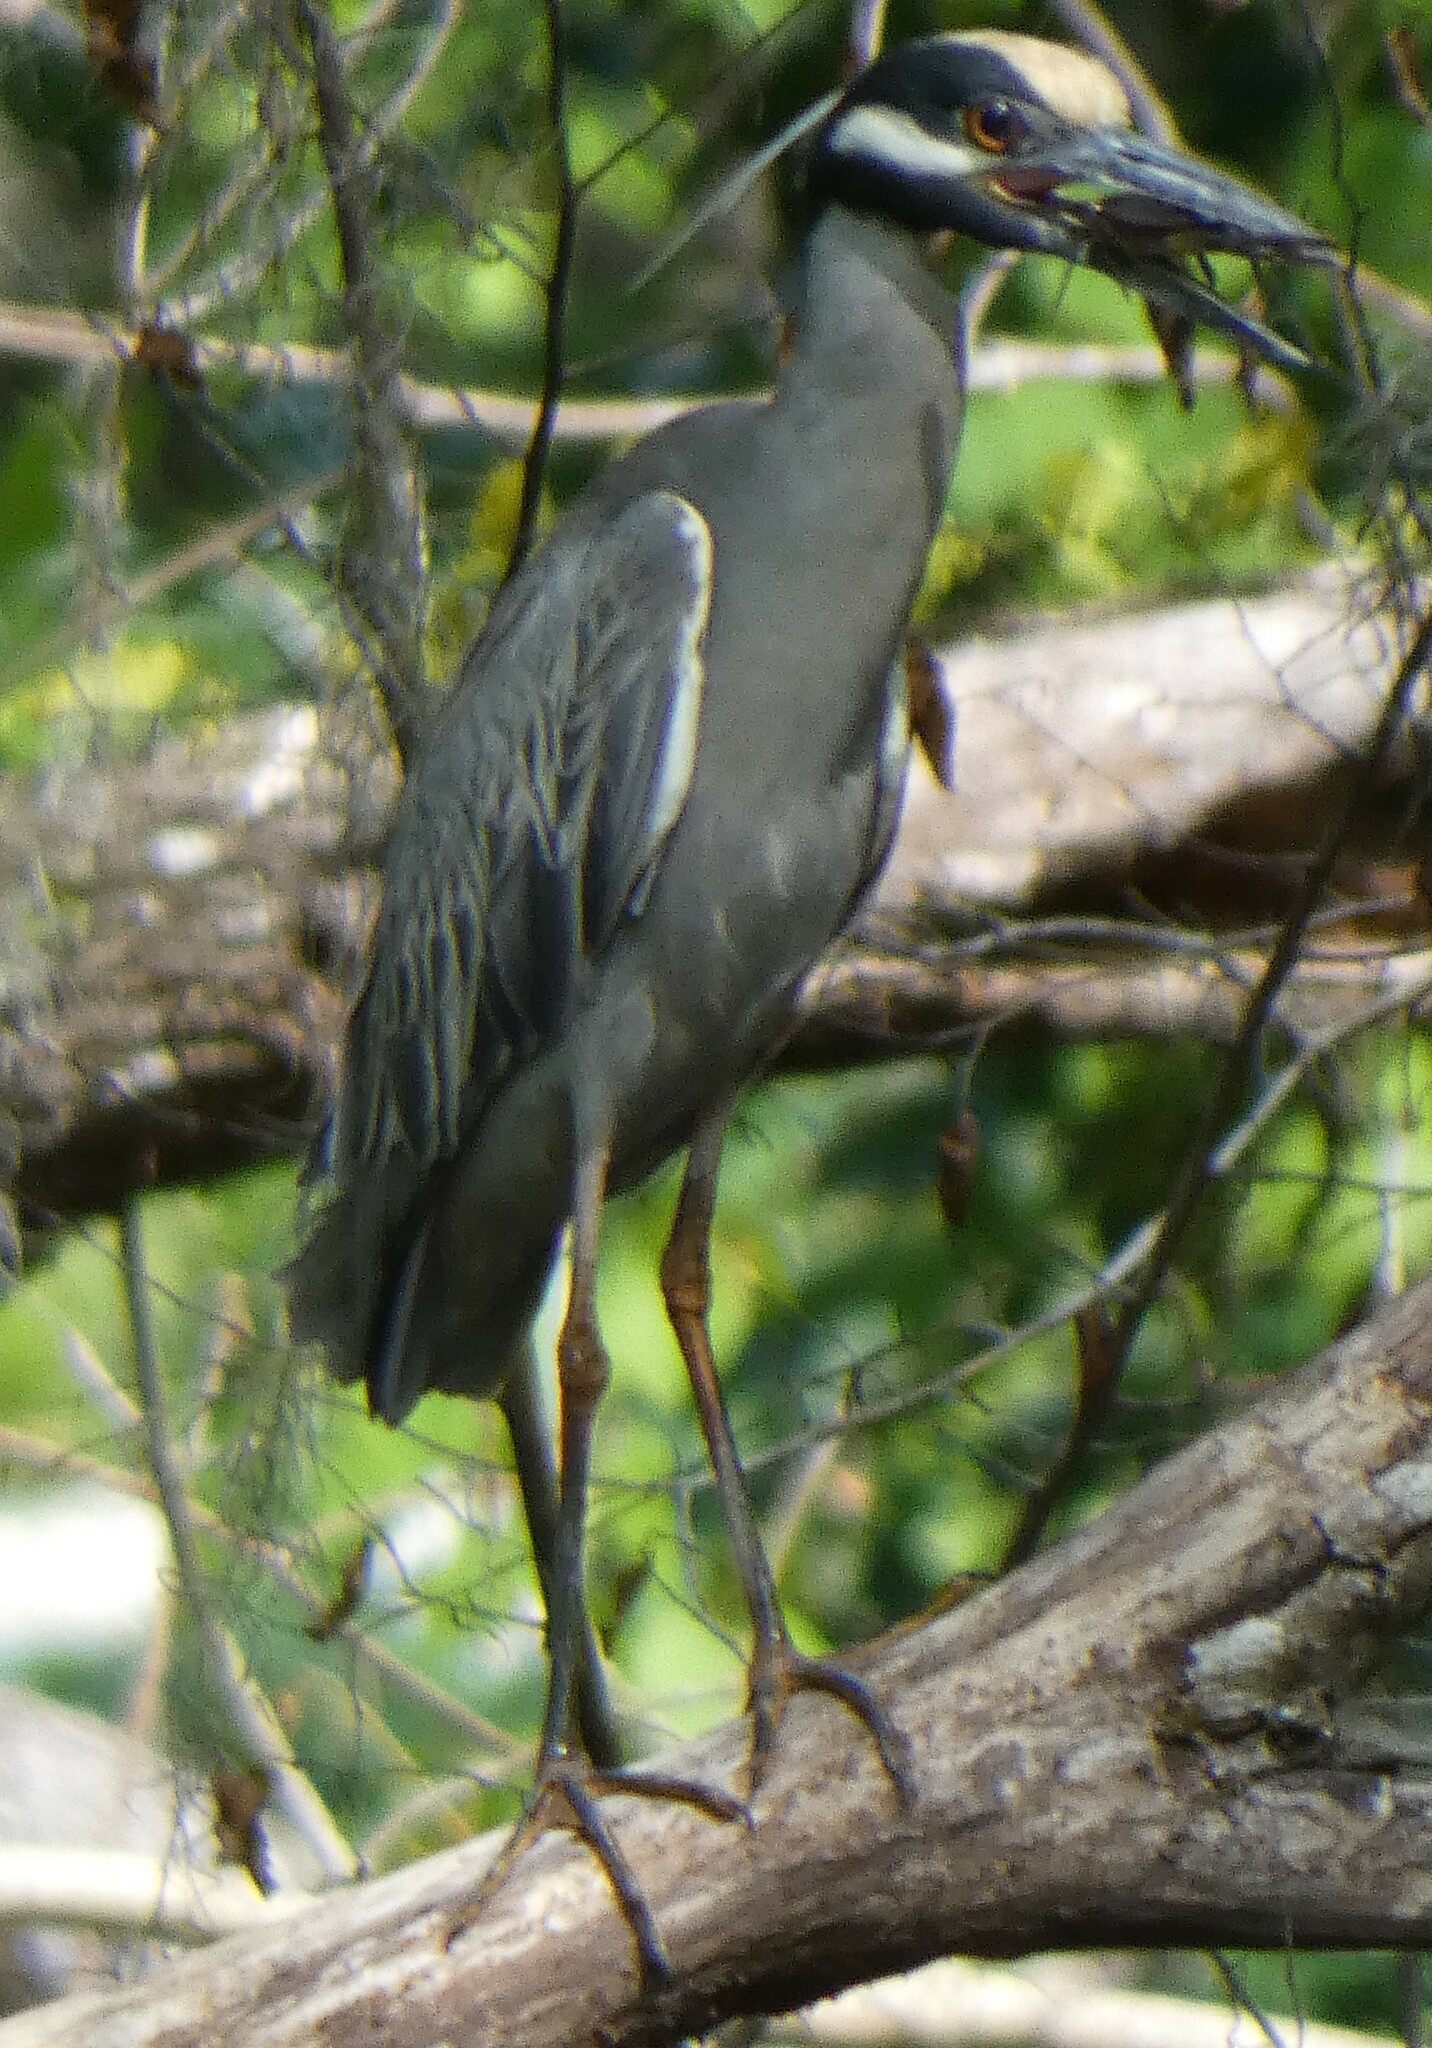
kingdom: Animalia
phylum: Chordata
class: Aves
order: Pelecaniformes
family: Ardeidae
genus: Nyctanassa
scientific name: Nyctanassa violacea
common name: Yellow-crowned night heron
